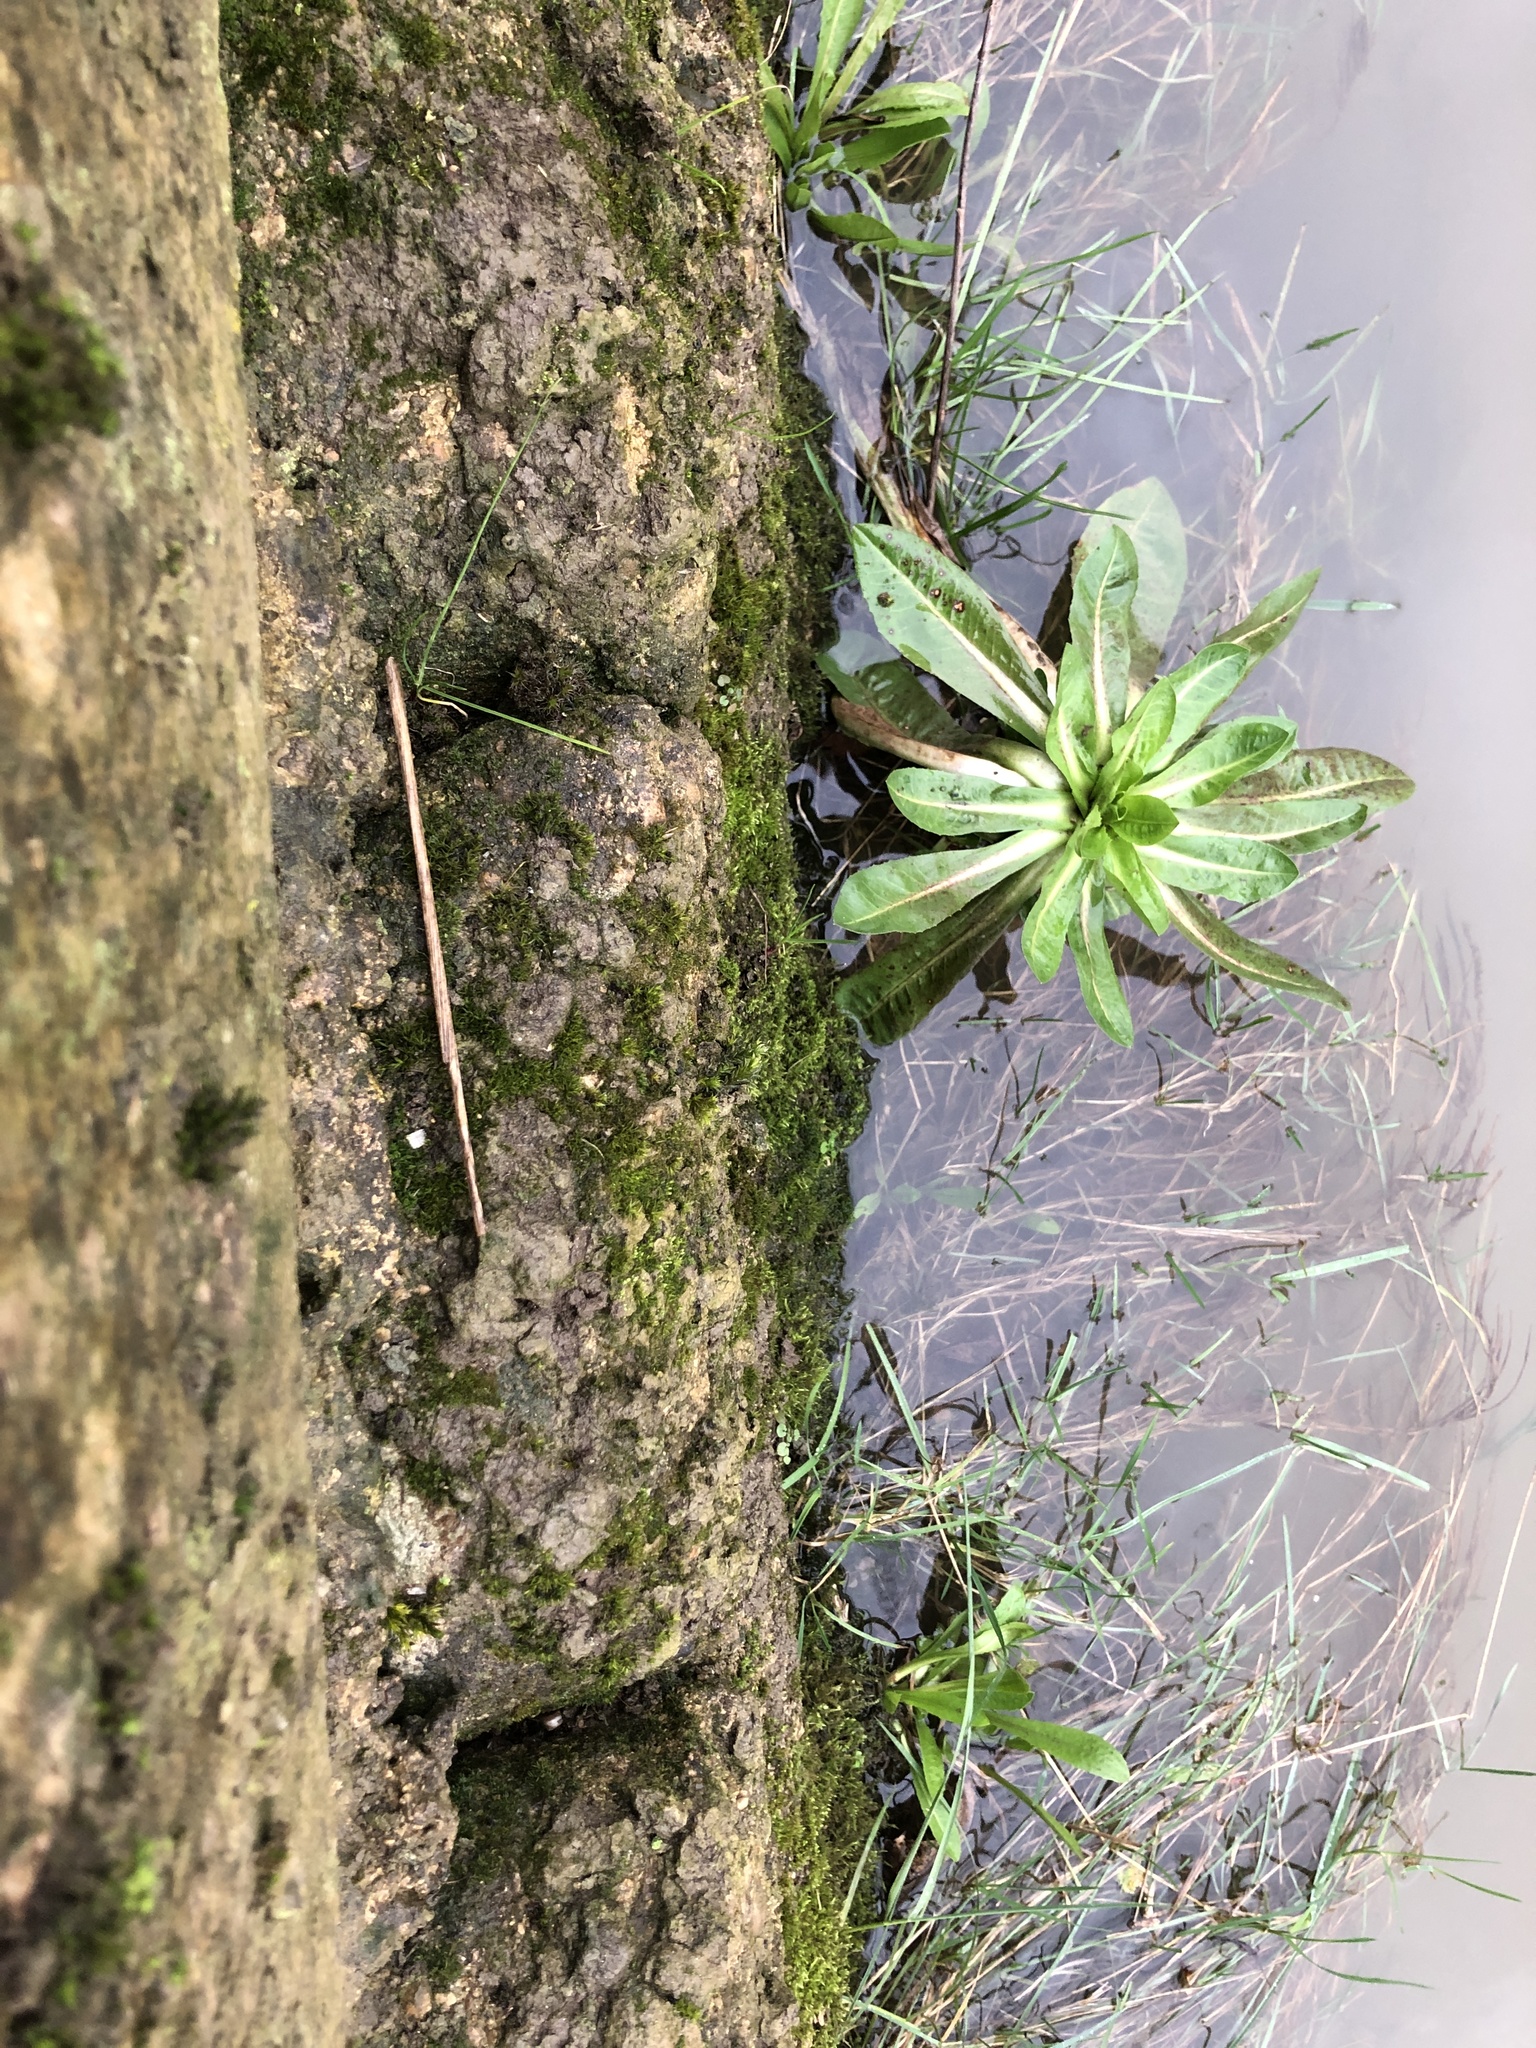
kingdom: Plantae
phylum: Bryophyta
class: Bryopsida
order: Pottiales
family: Pottiaceae
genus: Cinclidotus
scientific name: Cinclidotus fontinaloides
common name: Smaller lattice-moss
